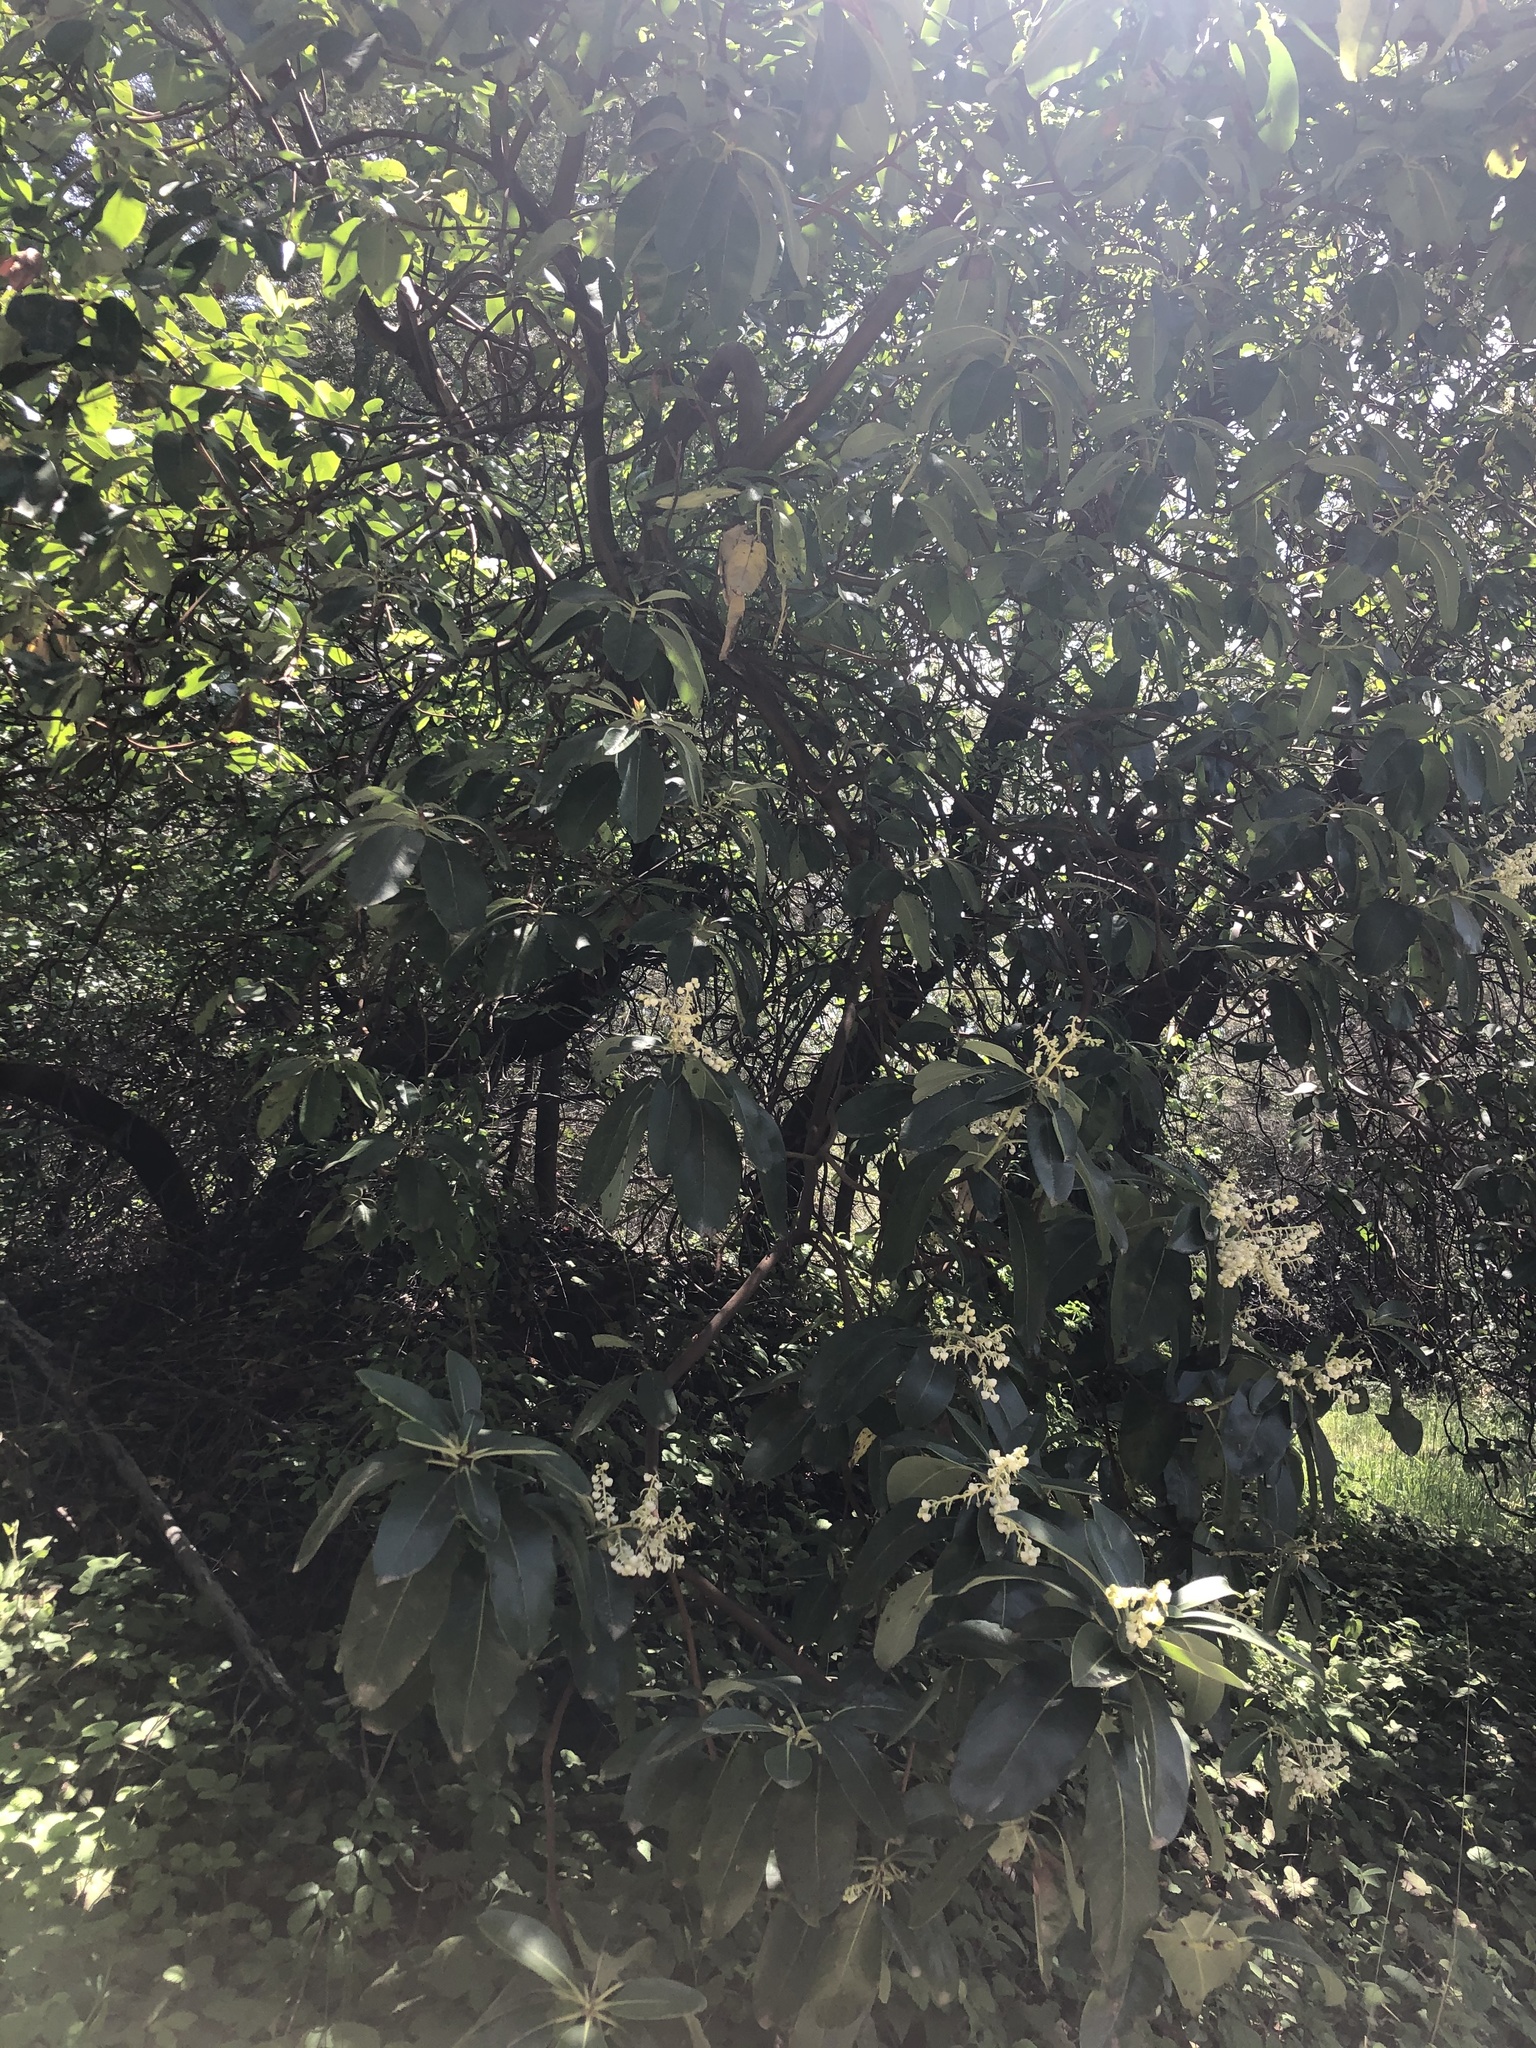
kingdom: Plantae
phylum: Tracheophyta
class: Magnoliopsida
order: Ericales
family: Ericaceae
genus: Arbutus
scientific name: Arbutus menziesii
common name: Pacific madrone
